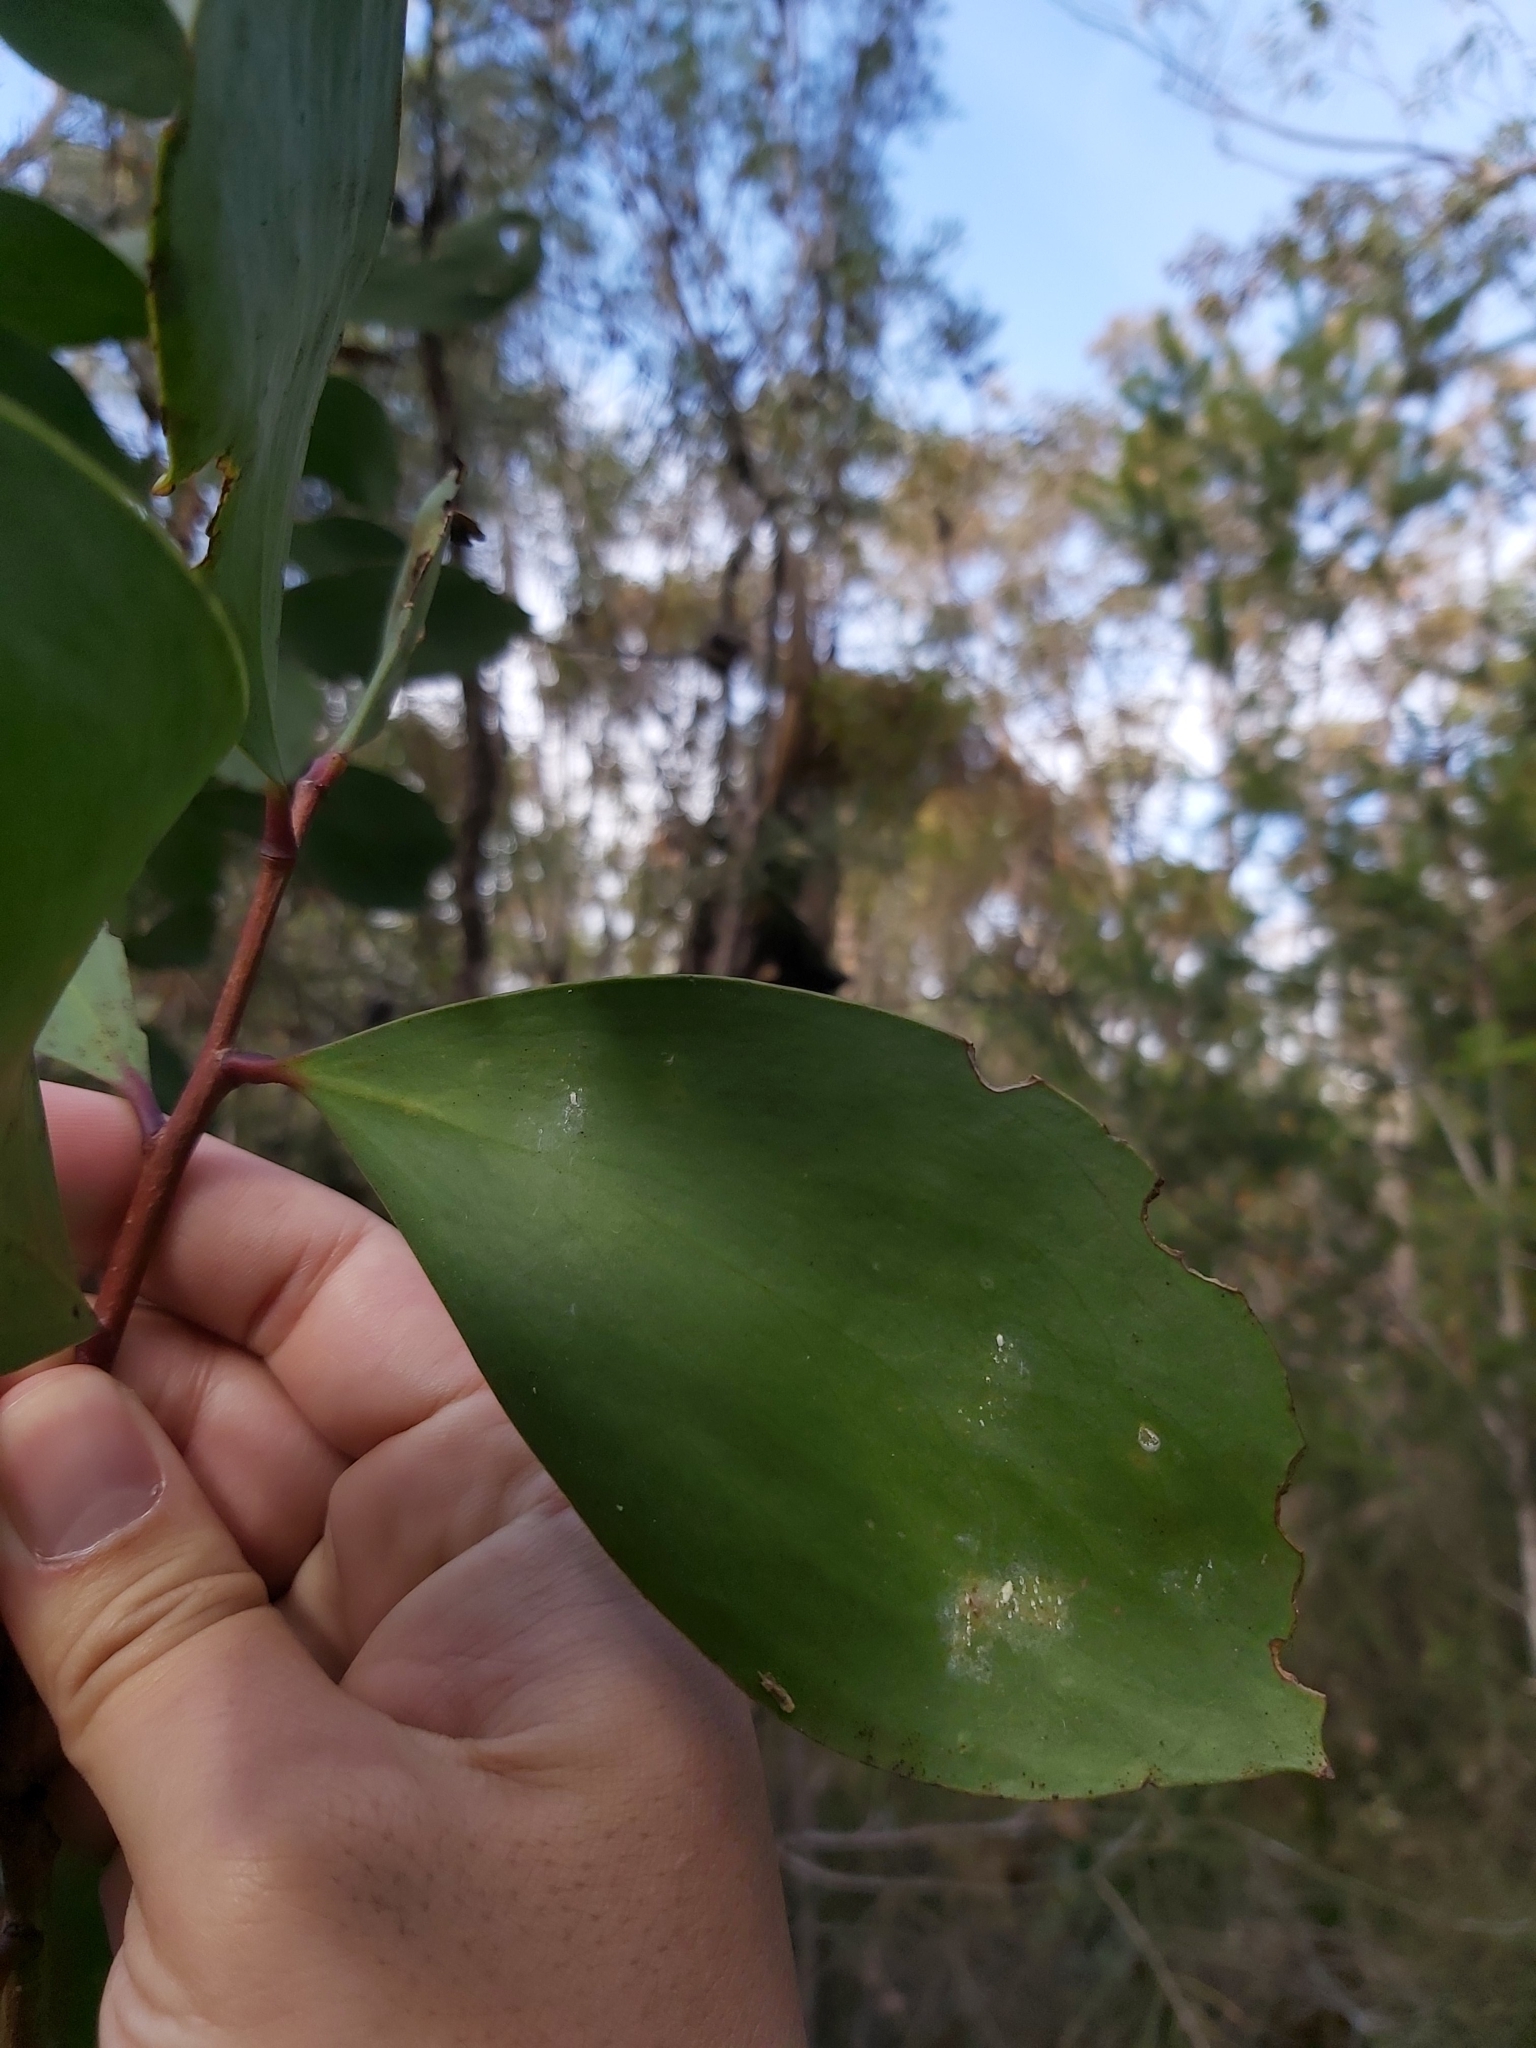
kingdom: Plantae
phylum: Tracheophyta
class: Magnoliopsida
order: Proteales
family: Proteaceae
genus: Persoonia
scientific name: Persoonia levis
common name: Smooth geebung
